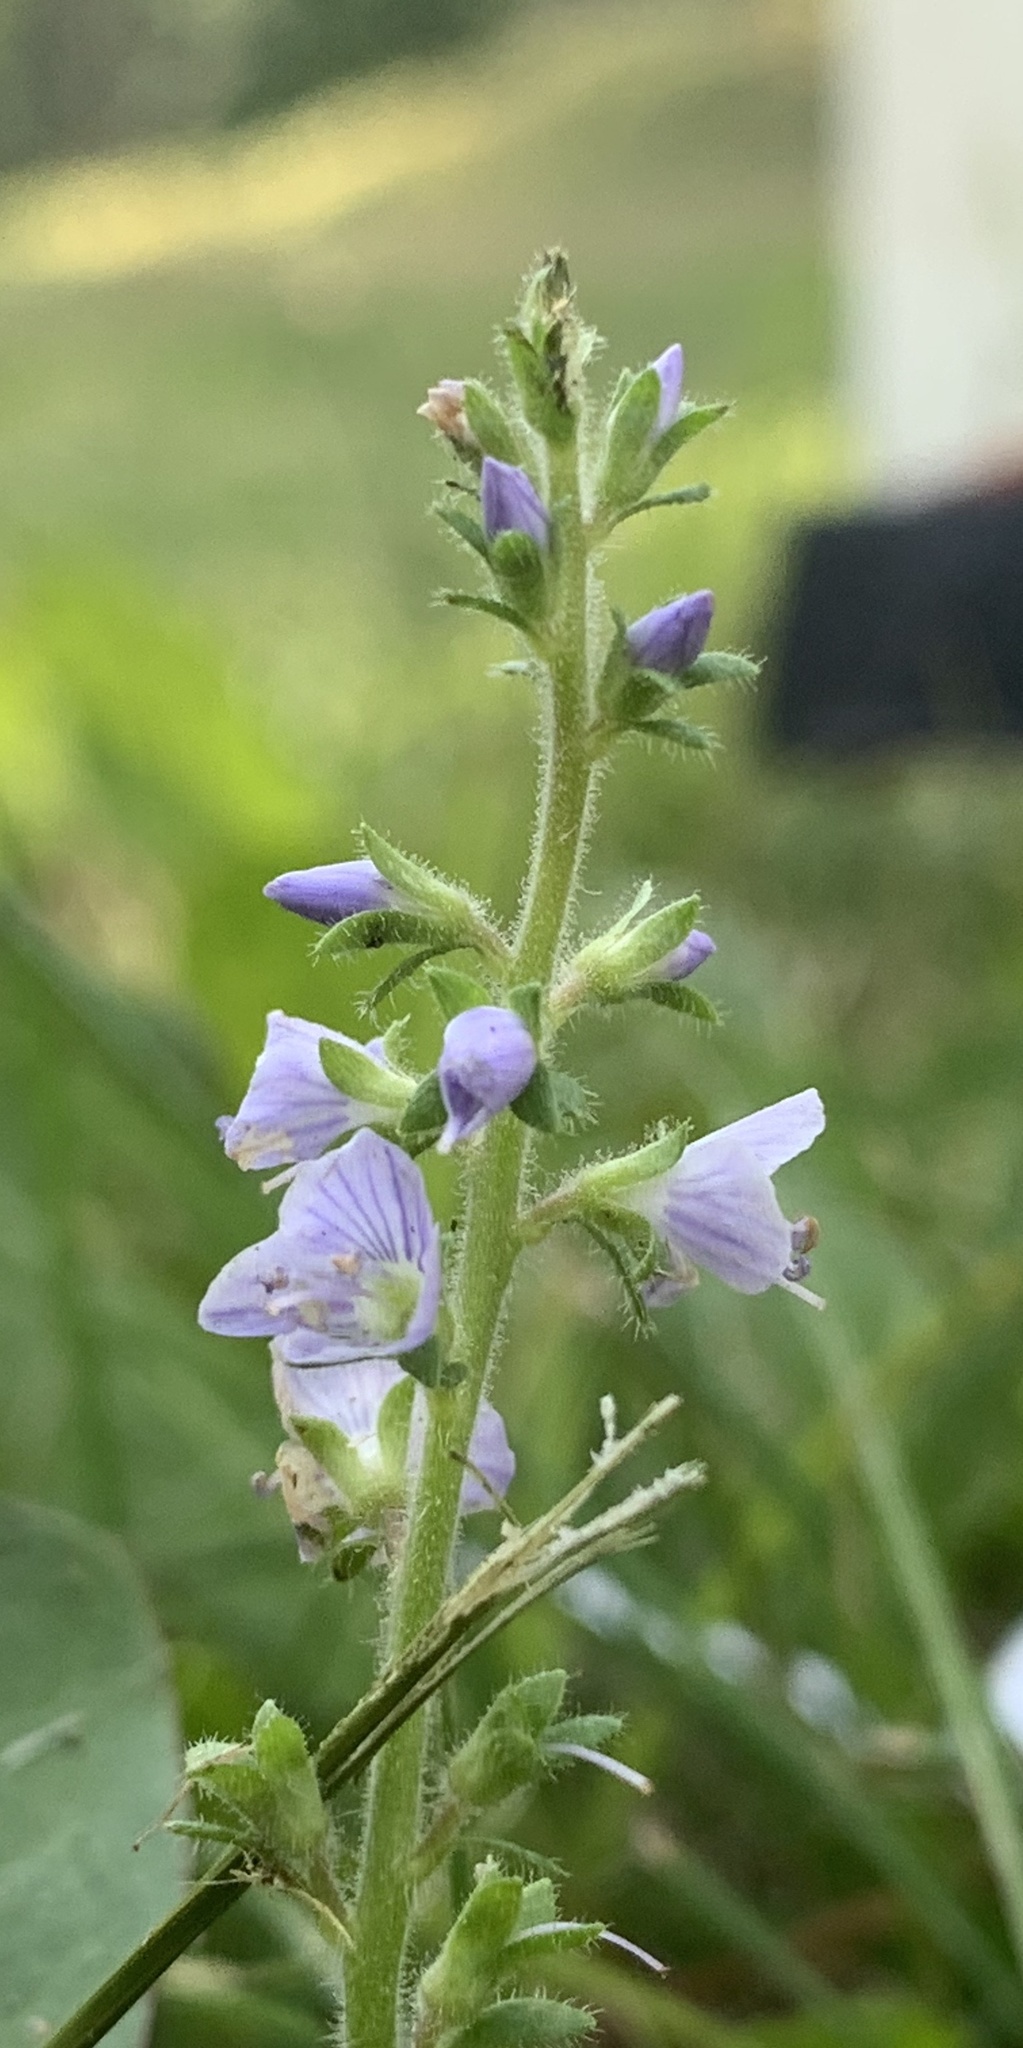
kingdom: Plantae
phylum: Tracheophyta
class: Magnoliopsida
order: Lamiales
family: Plantaginaceae
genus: Veronica
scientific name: Veronica officinalis
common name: Common speedwell
